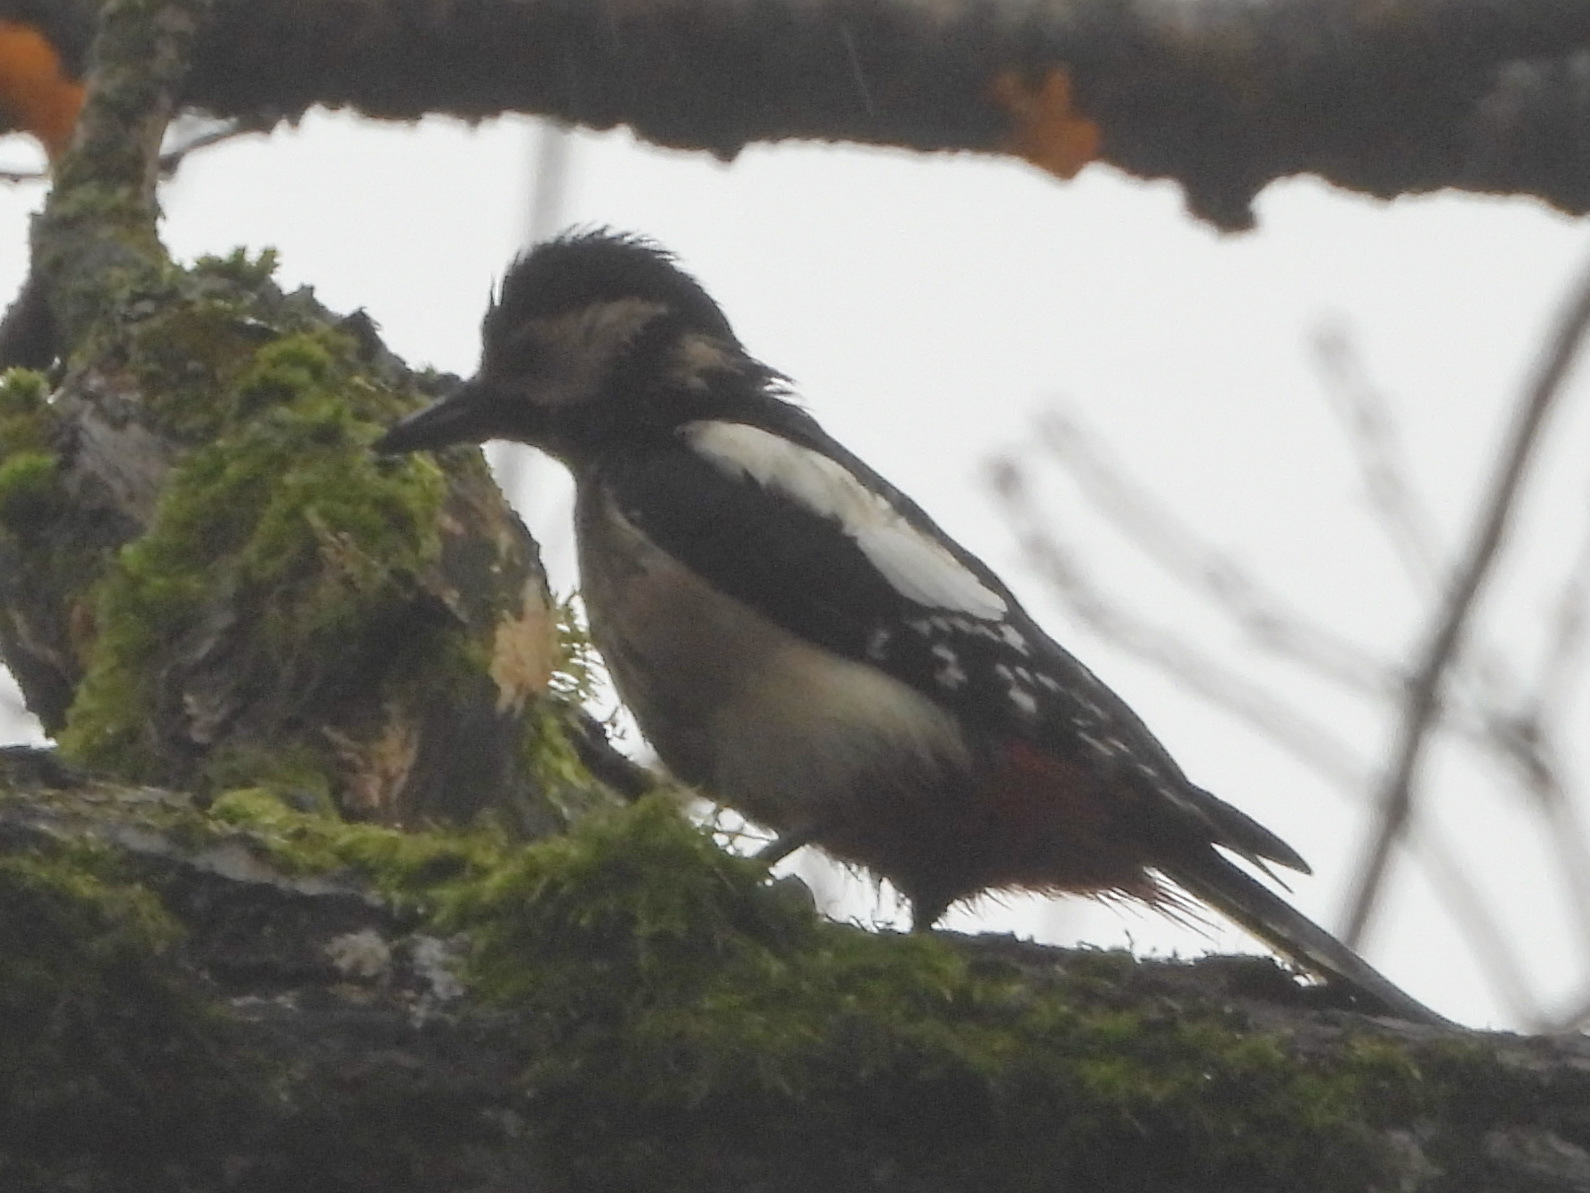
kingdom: Animalia
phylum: Chordata
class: Aves
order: Piciformes
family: Picidae
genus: Dendrocopos
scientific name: Dendrocopos major
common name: Great spotted woodpecker
